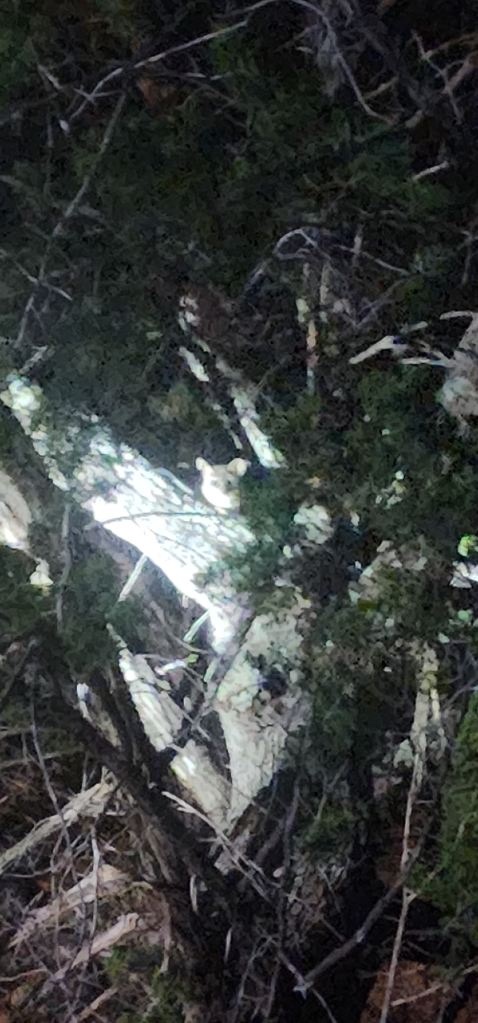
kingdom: Animalia
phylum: Chordata
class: Mammalia
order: Carnivora
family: Procyonidae
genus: Bassariscus
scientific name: Bassariscus astutus
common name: Ringtail
